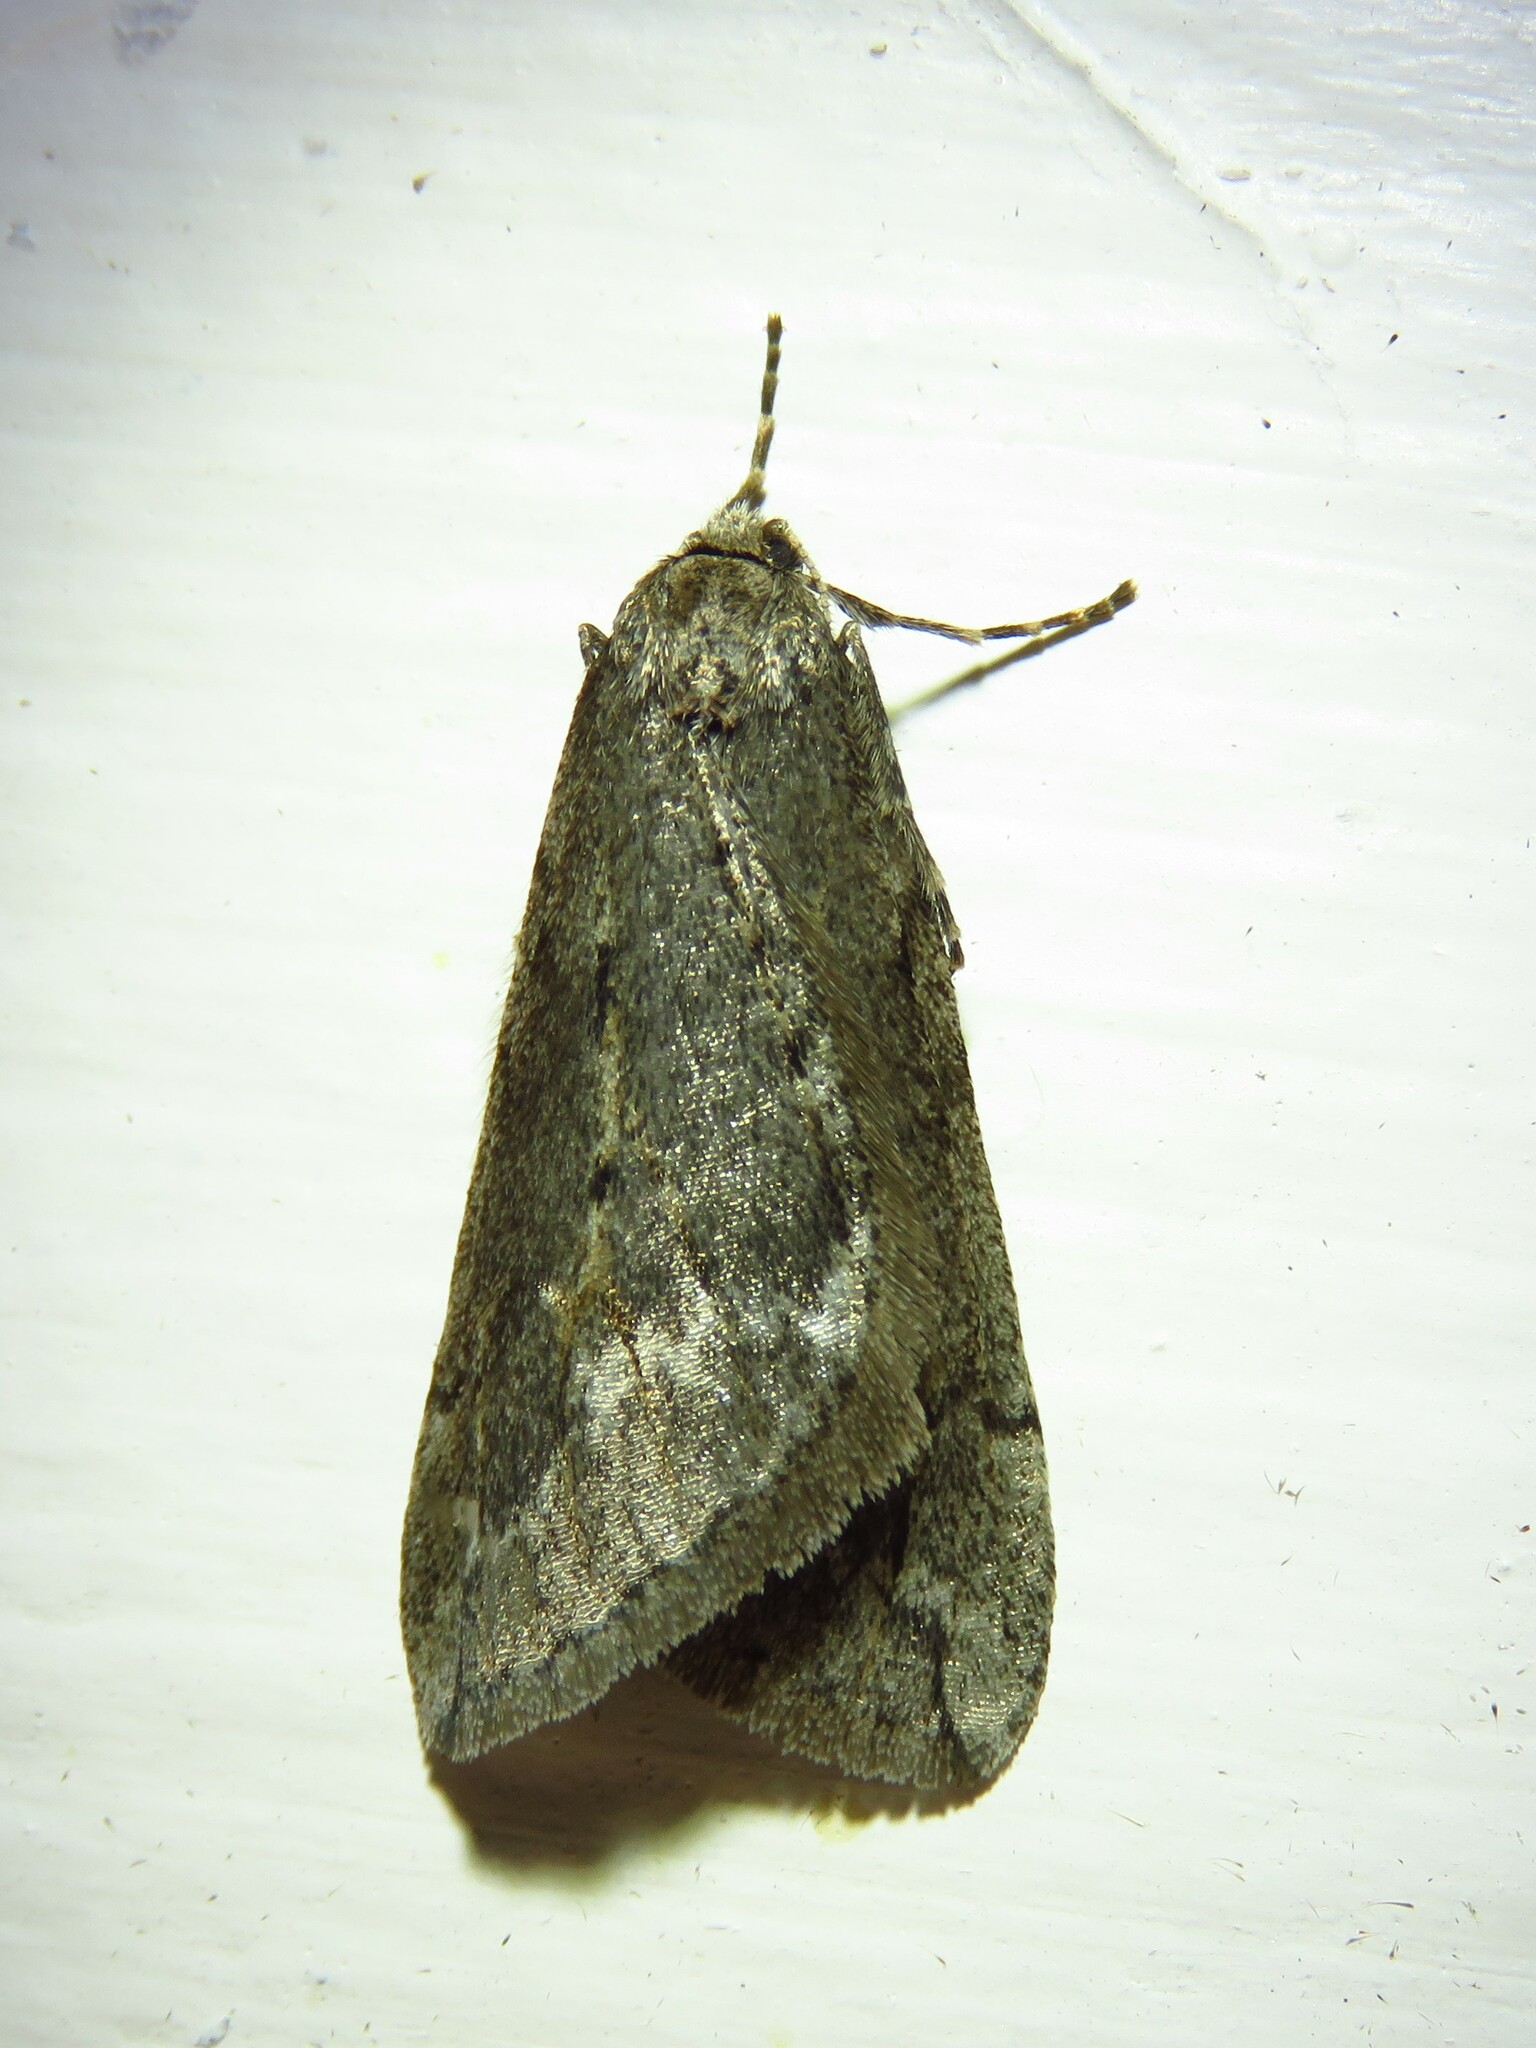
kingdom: Animalia
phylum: Arthropoda
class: Insecta
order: Lepidoptera
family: Geometridae
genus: Paleacrita
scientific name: Paleacrita vernata
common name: Spring cankerworm
